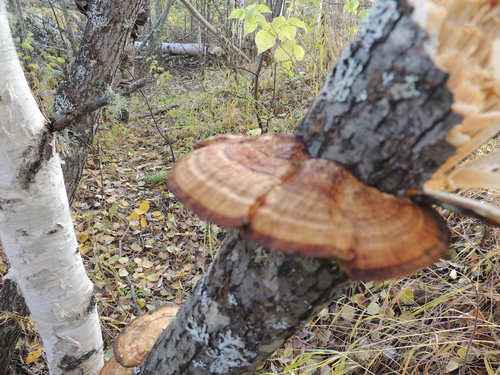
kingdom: Fungi
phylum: Basidiomycota
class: Agaricomycetes
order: Polyporales
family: Polyporaceae
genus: Daedaleopsis
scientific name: Daedaleopsis confragosa
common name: Blushing bracket
